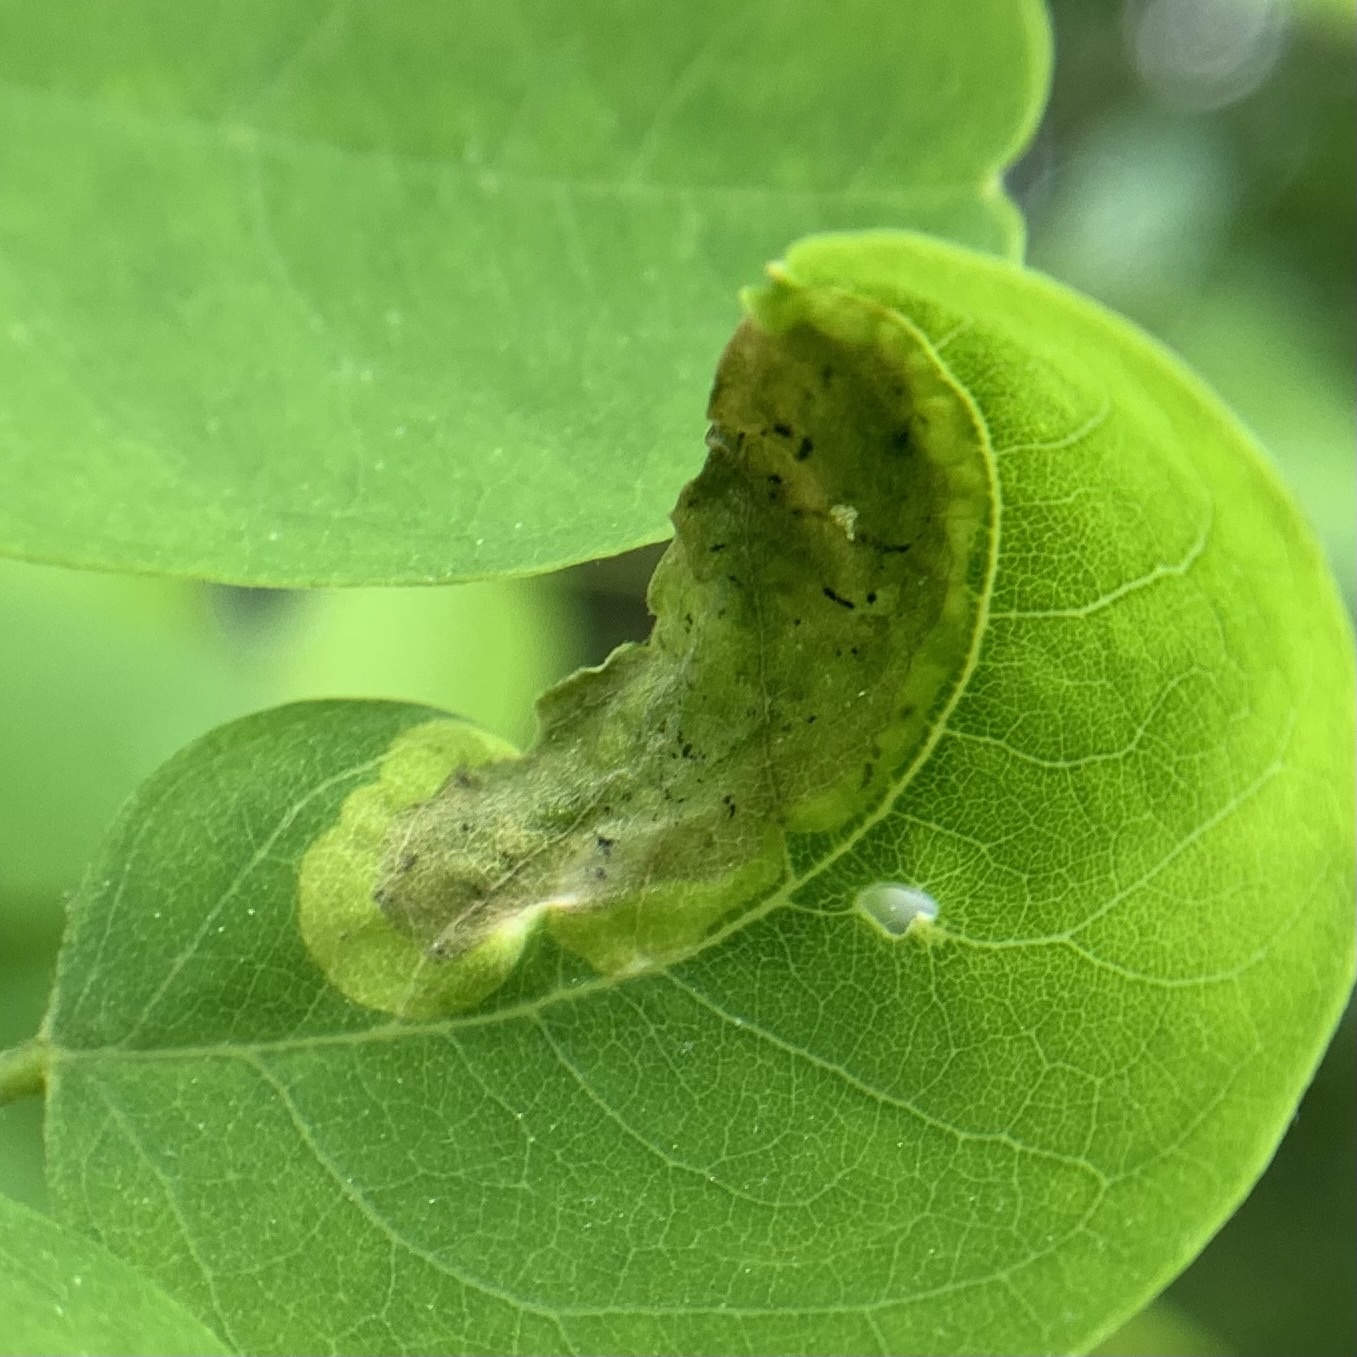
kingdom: Animalia
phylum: Arthropoda
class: Insecta
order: Diptera
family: Agromyzidae
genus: Agromyza
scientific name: Agromyza soka
